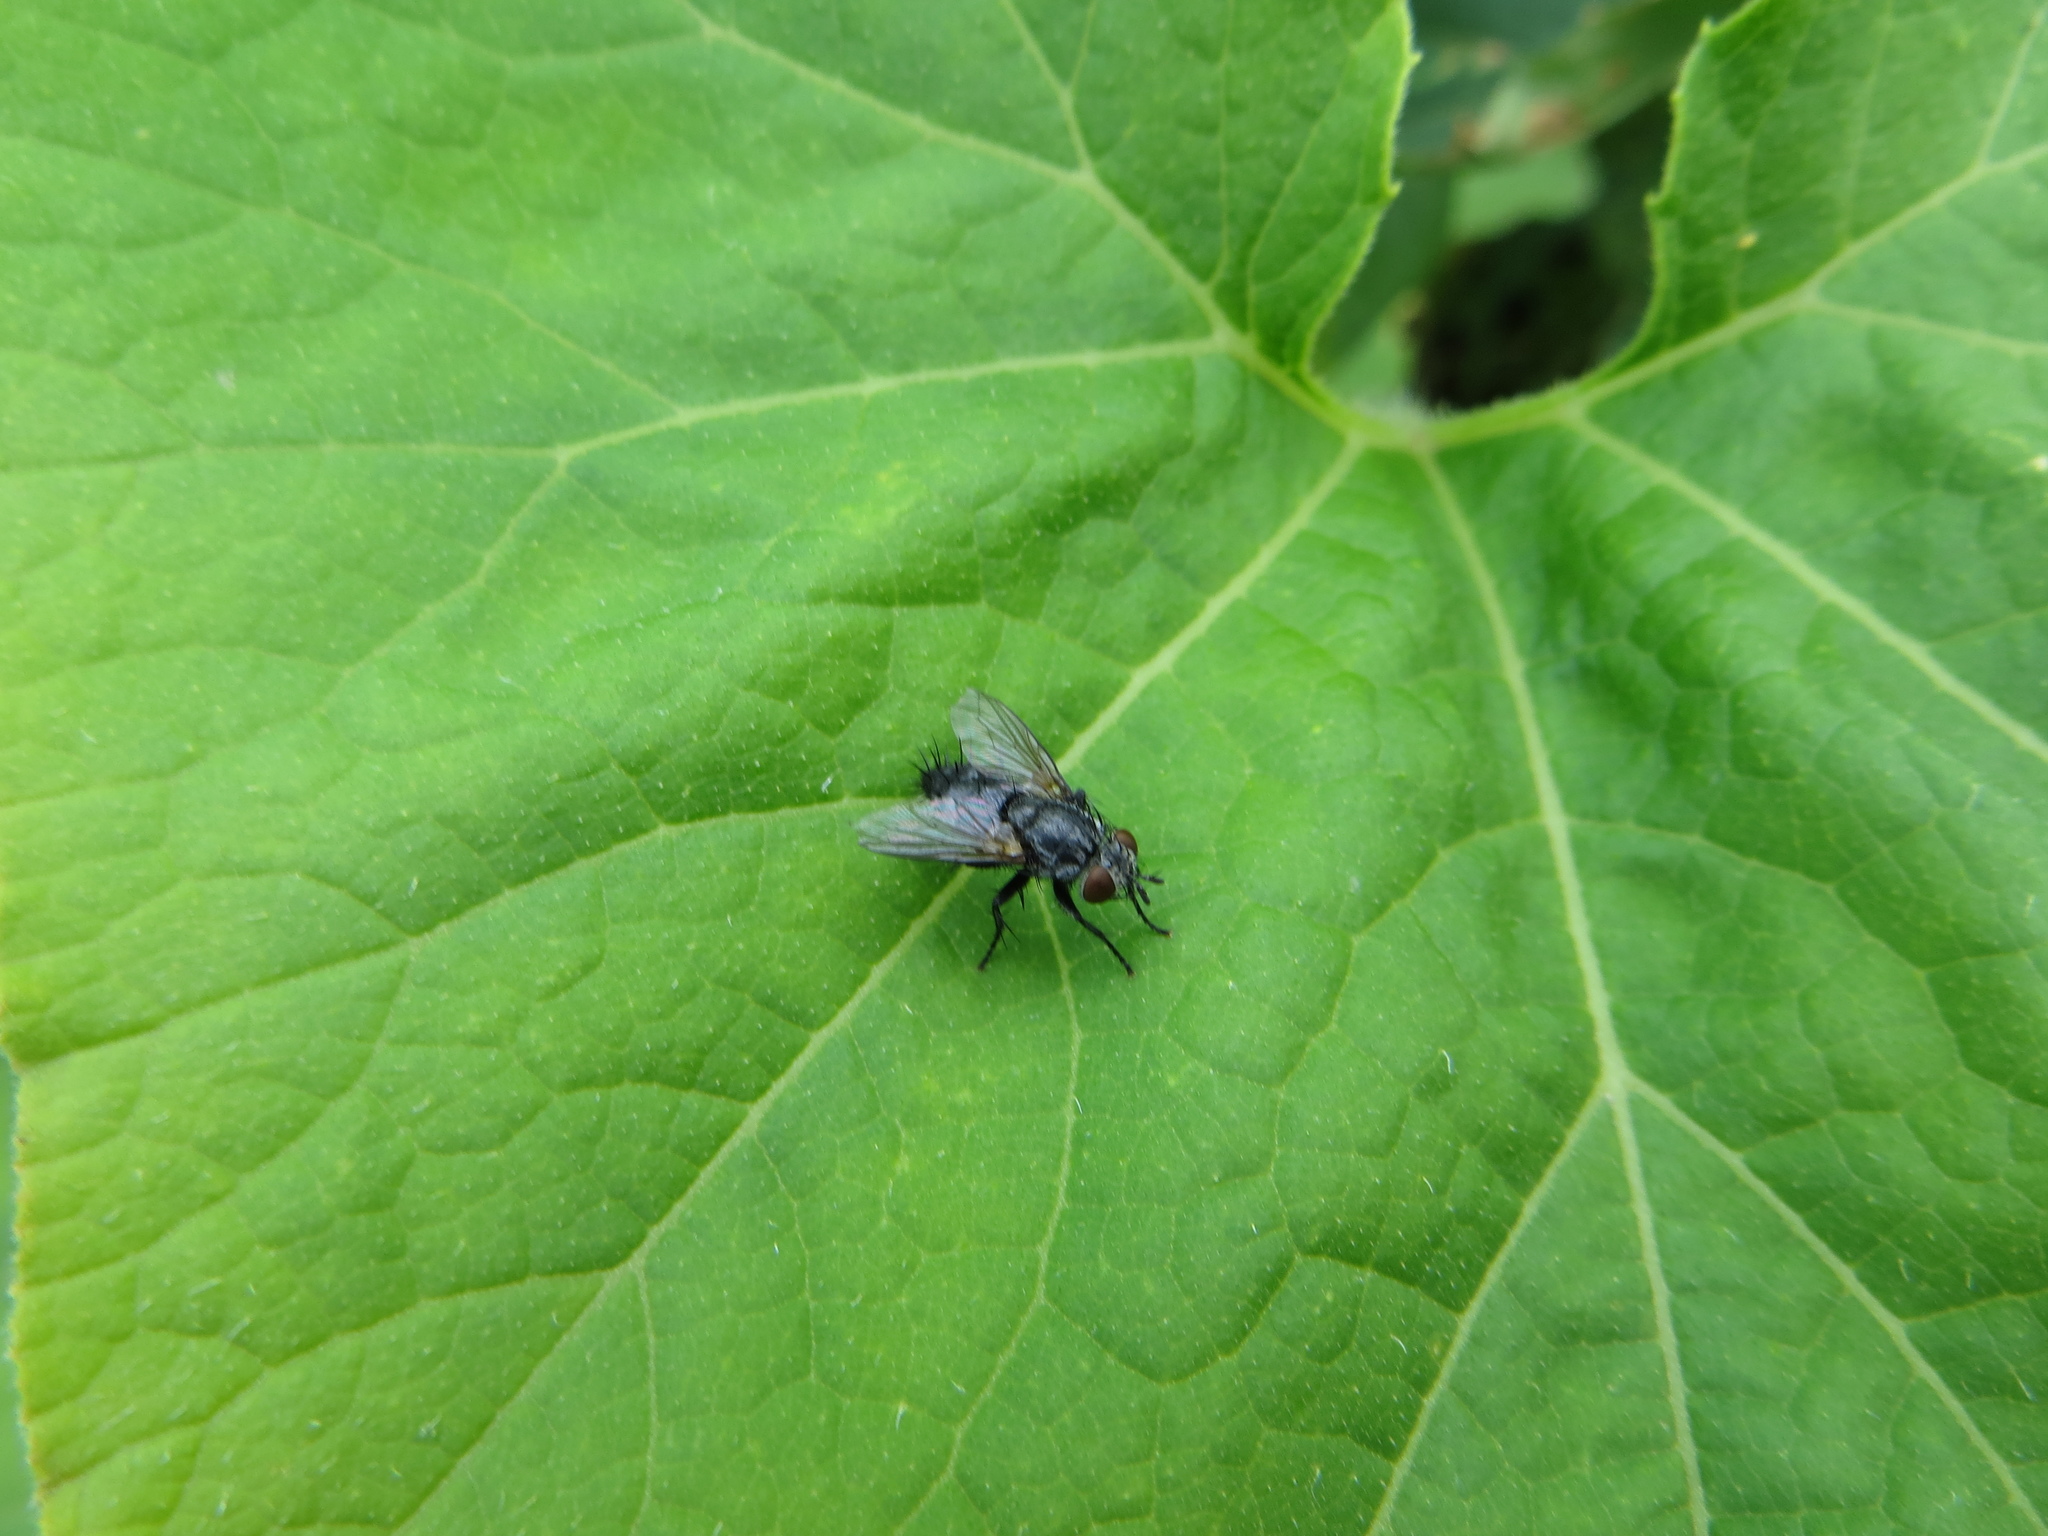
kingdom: Animalia
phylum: Arthropoda
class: Insecta
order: Diptera
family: Tachinidae
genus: Voria
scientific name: Voria ruralis
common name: Parasitic fly
